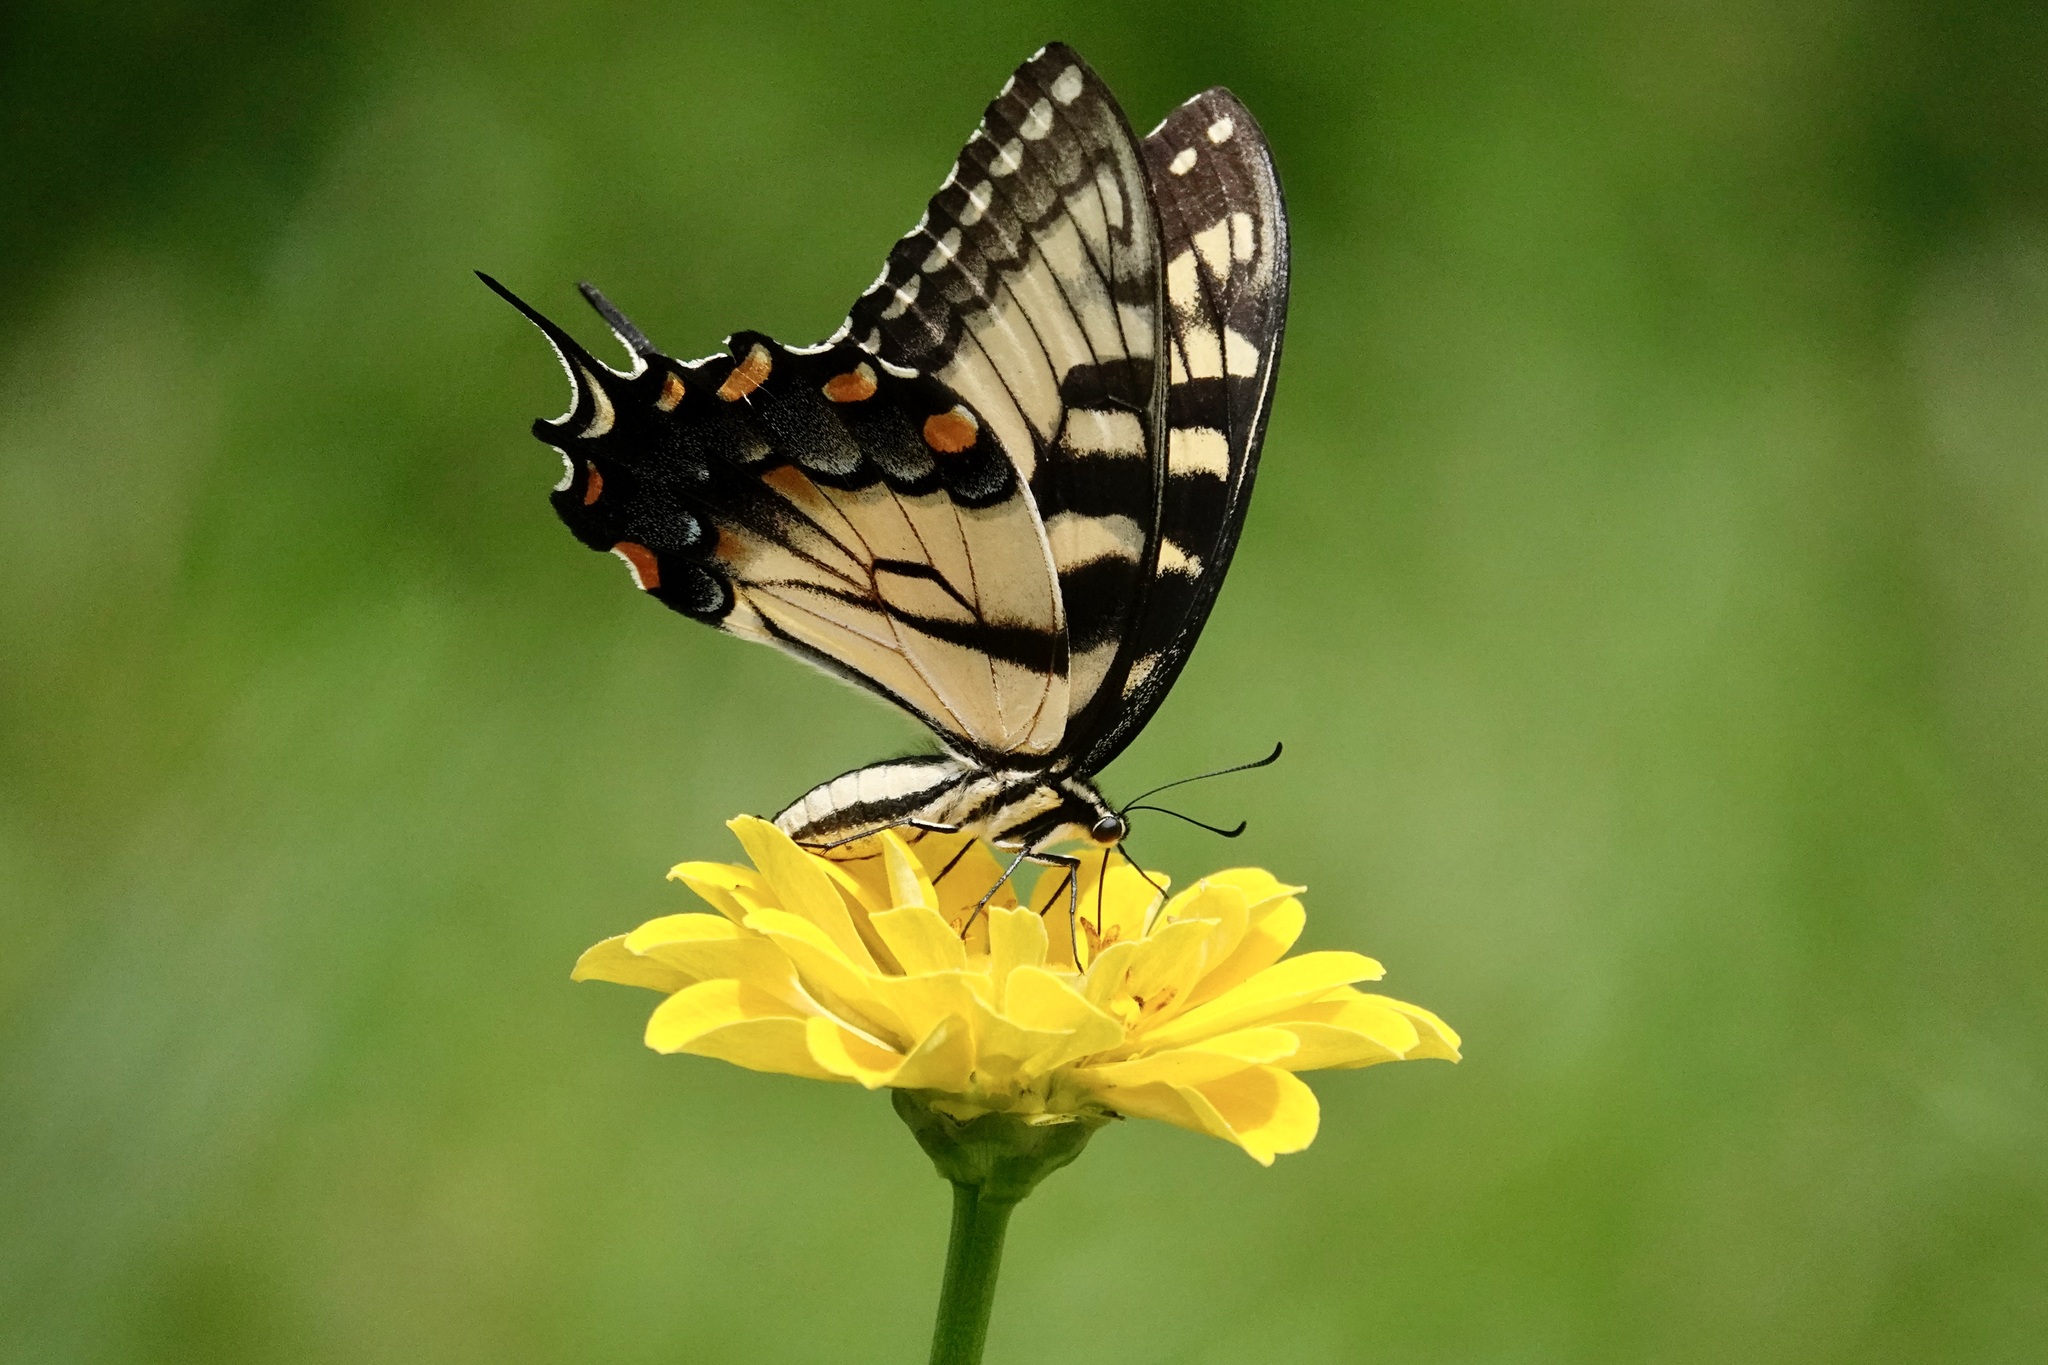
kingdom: Animalia
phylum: Arthropoda
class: Insecta
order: Lepidoptera
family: Papilionidae
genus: Papilio
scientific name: Papilio glaucus
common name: Tiger swallowtail
